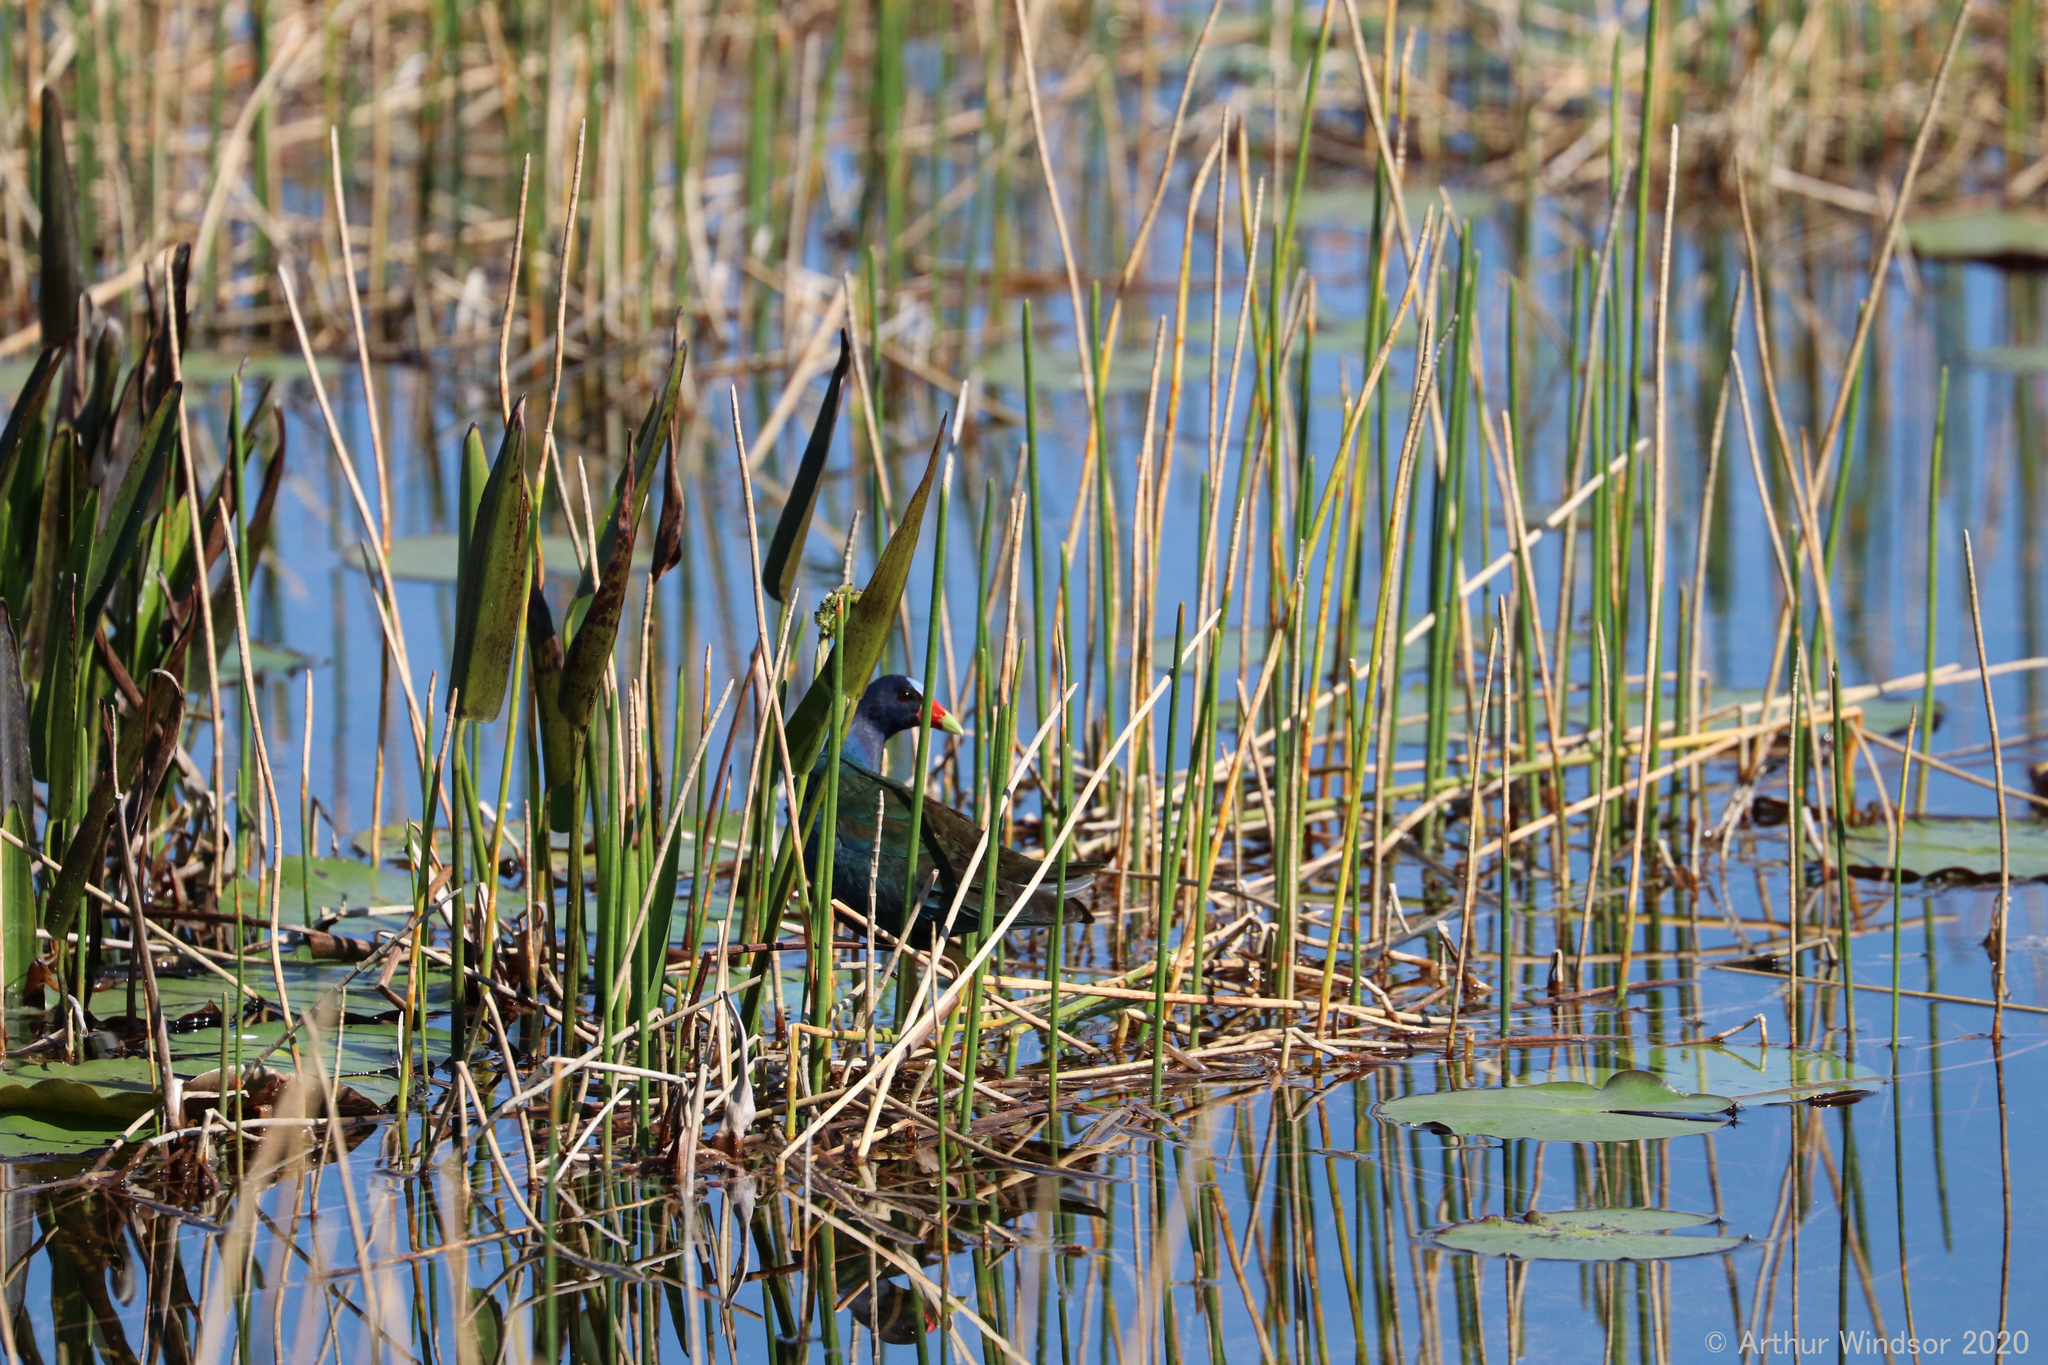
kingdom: Animalia
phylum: Chordata
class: Aves
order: Gruiformes
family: Rallidae
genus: Porphyrio
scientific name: Porphyrio martinica
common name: Purple gallinule
